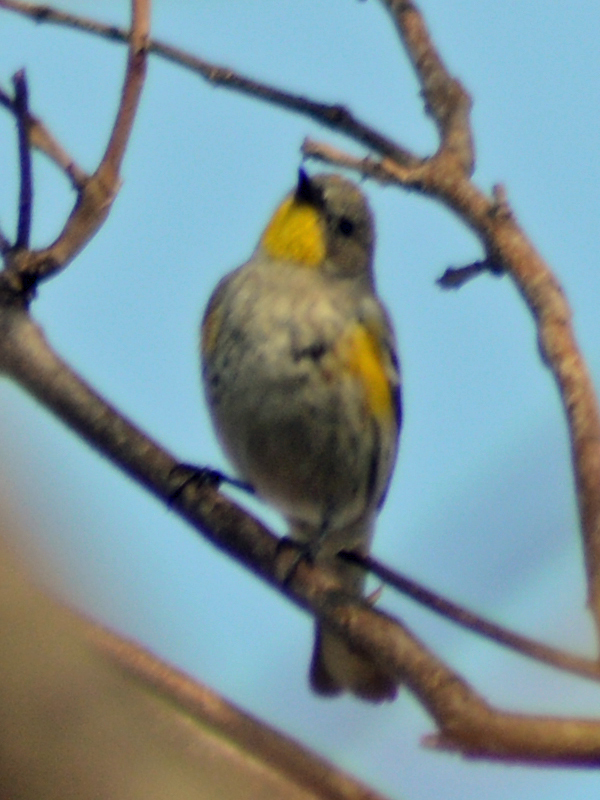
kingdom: Animalia
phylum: Chordata
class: Aves
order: Passeriformes
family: Parulidae
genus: Setophaga
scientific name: Setophaga coronata
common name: Myrtle warbler
